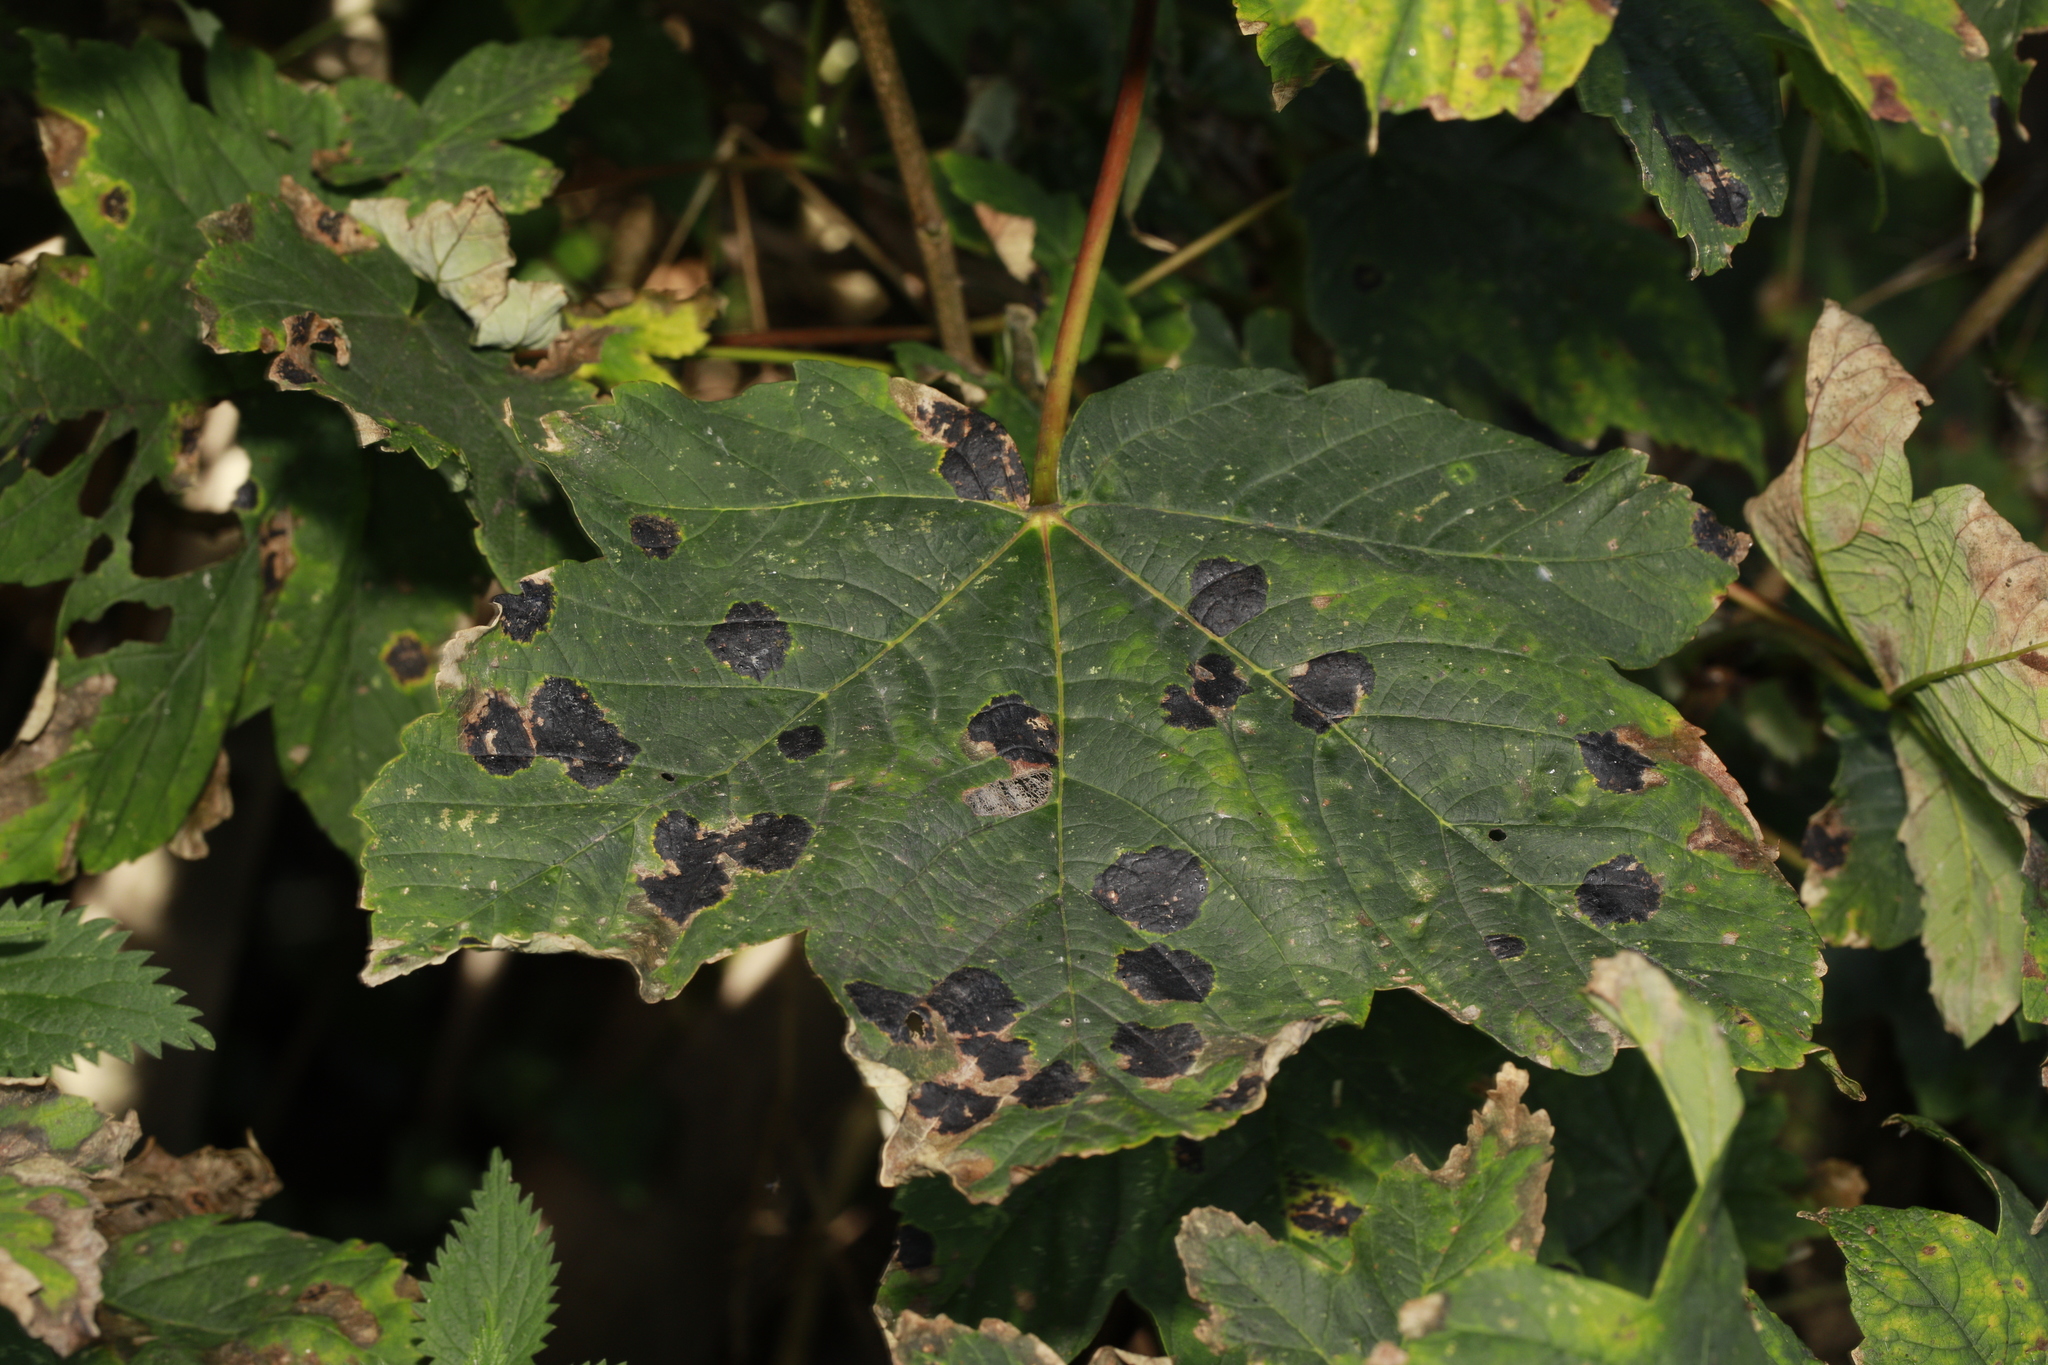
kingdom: Plantae
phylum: Tracheophyta
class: Magnoliopsida
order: Sapindales
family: Sapindaceae
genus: Acer
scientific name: Acer pseudoplatanus
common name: Sycamore
